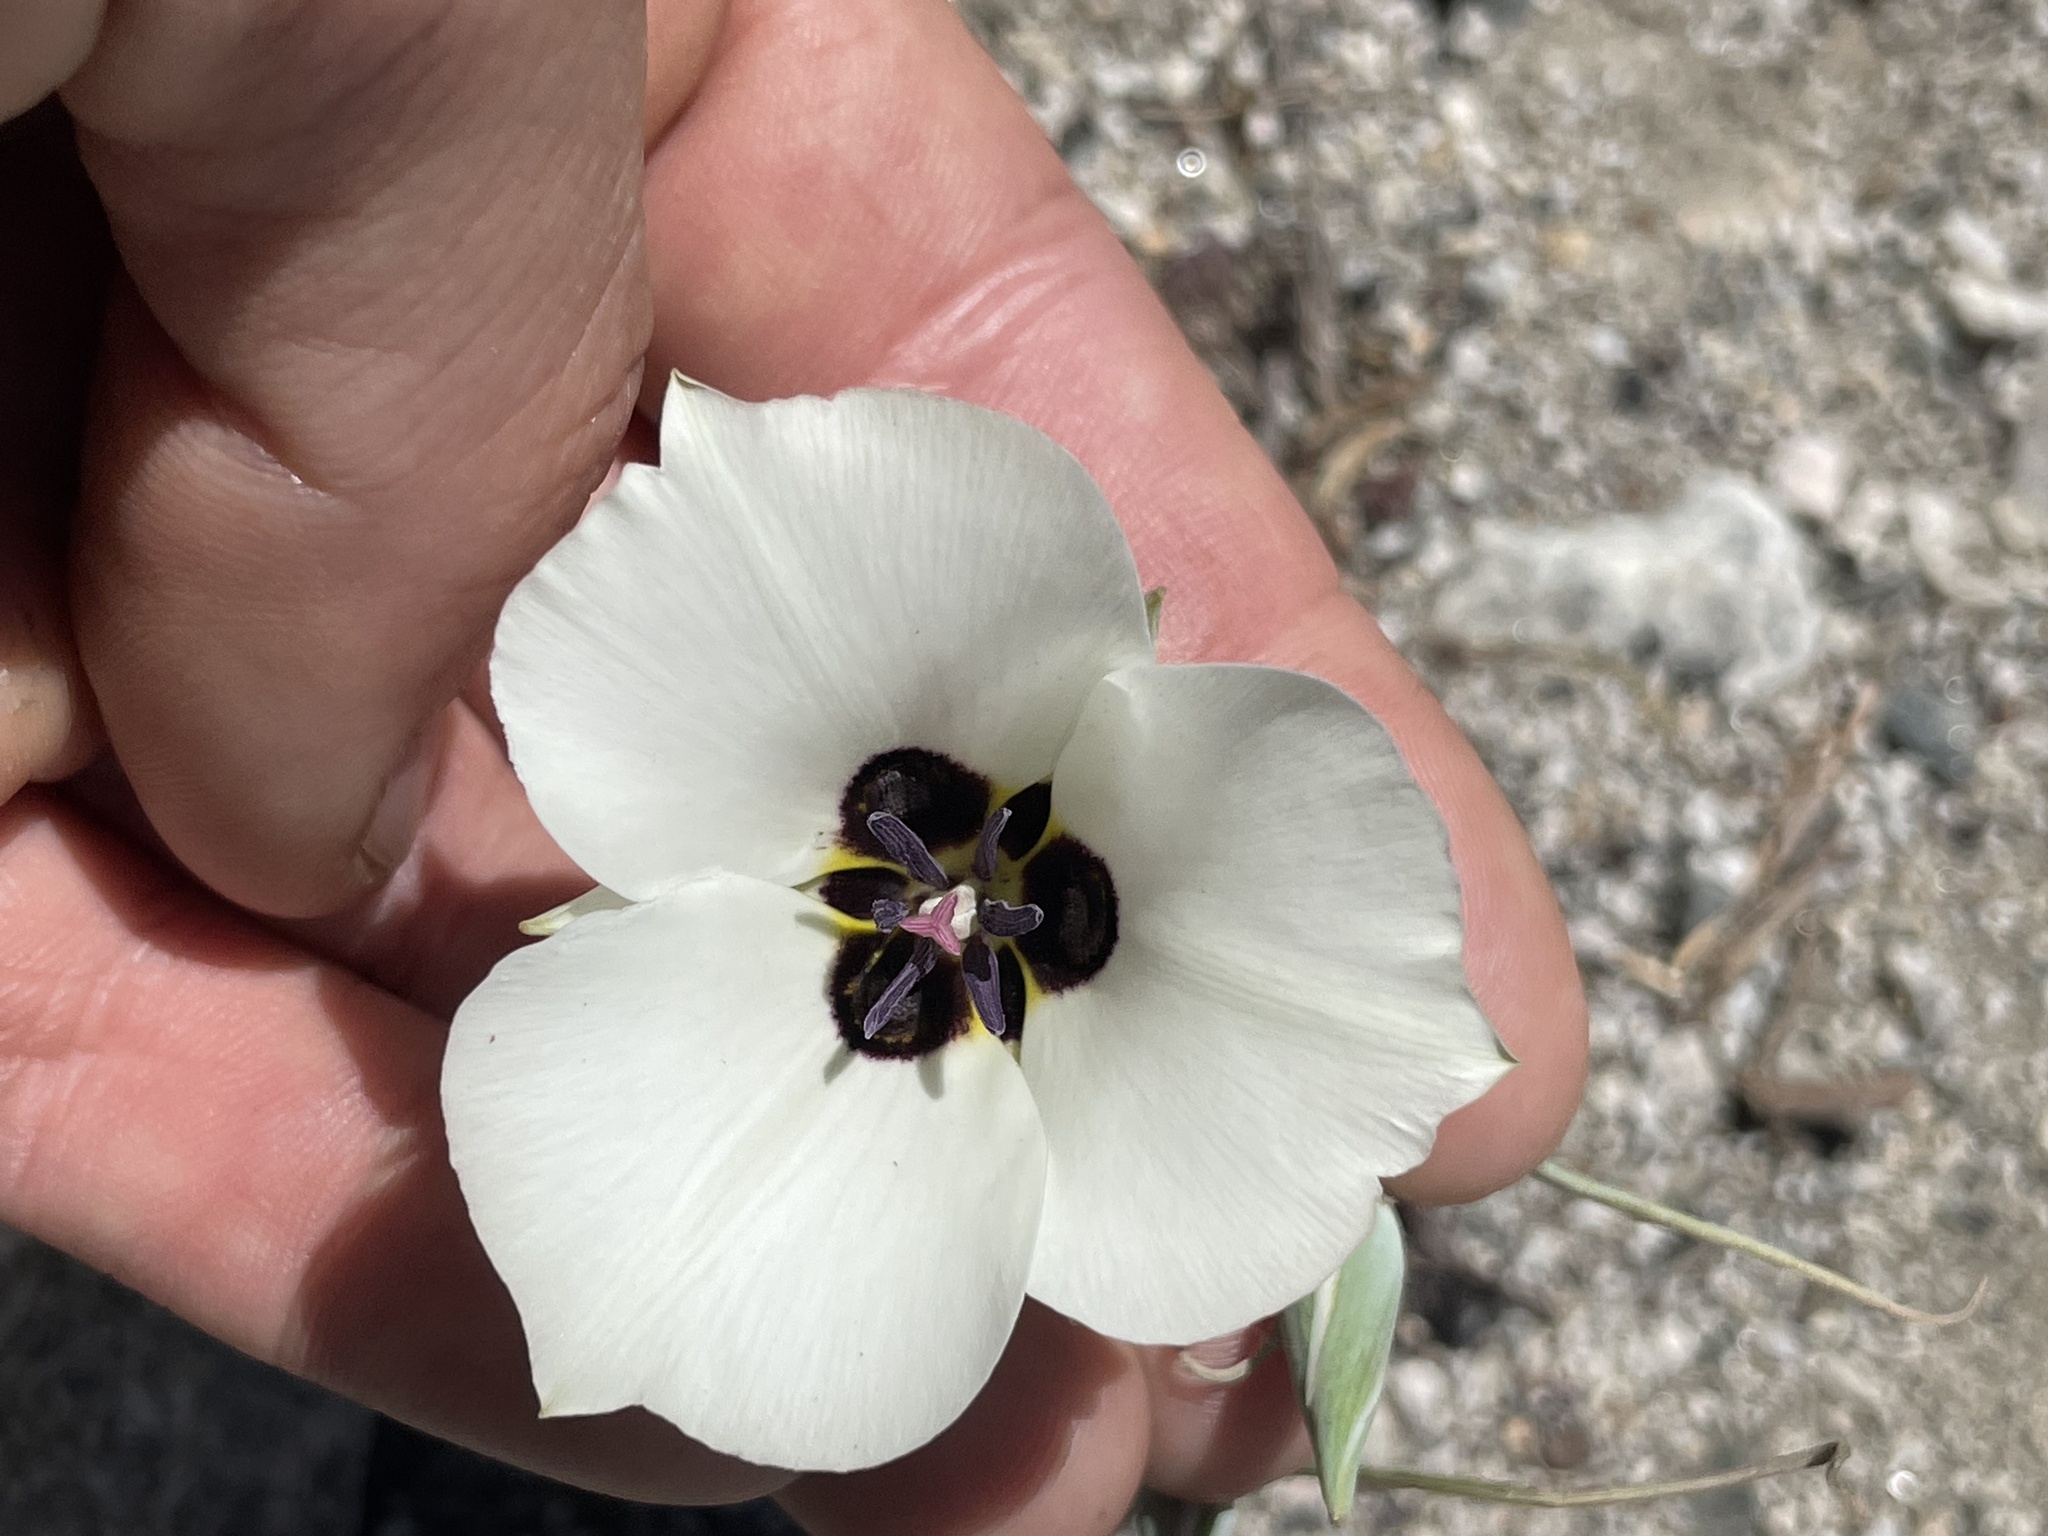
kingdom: Plantae
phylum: Tracheophyta
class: Liliopsida
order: Liliales
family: Liliaceae
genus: Calochortus
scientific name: Calochortus bruneaunis
